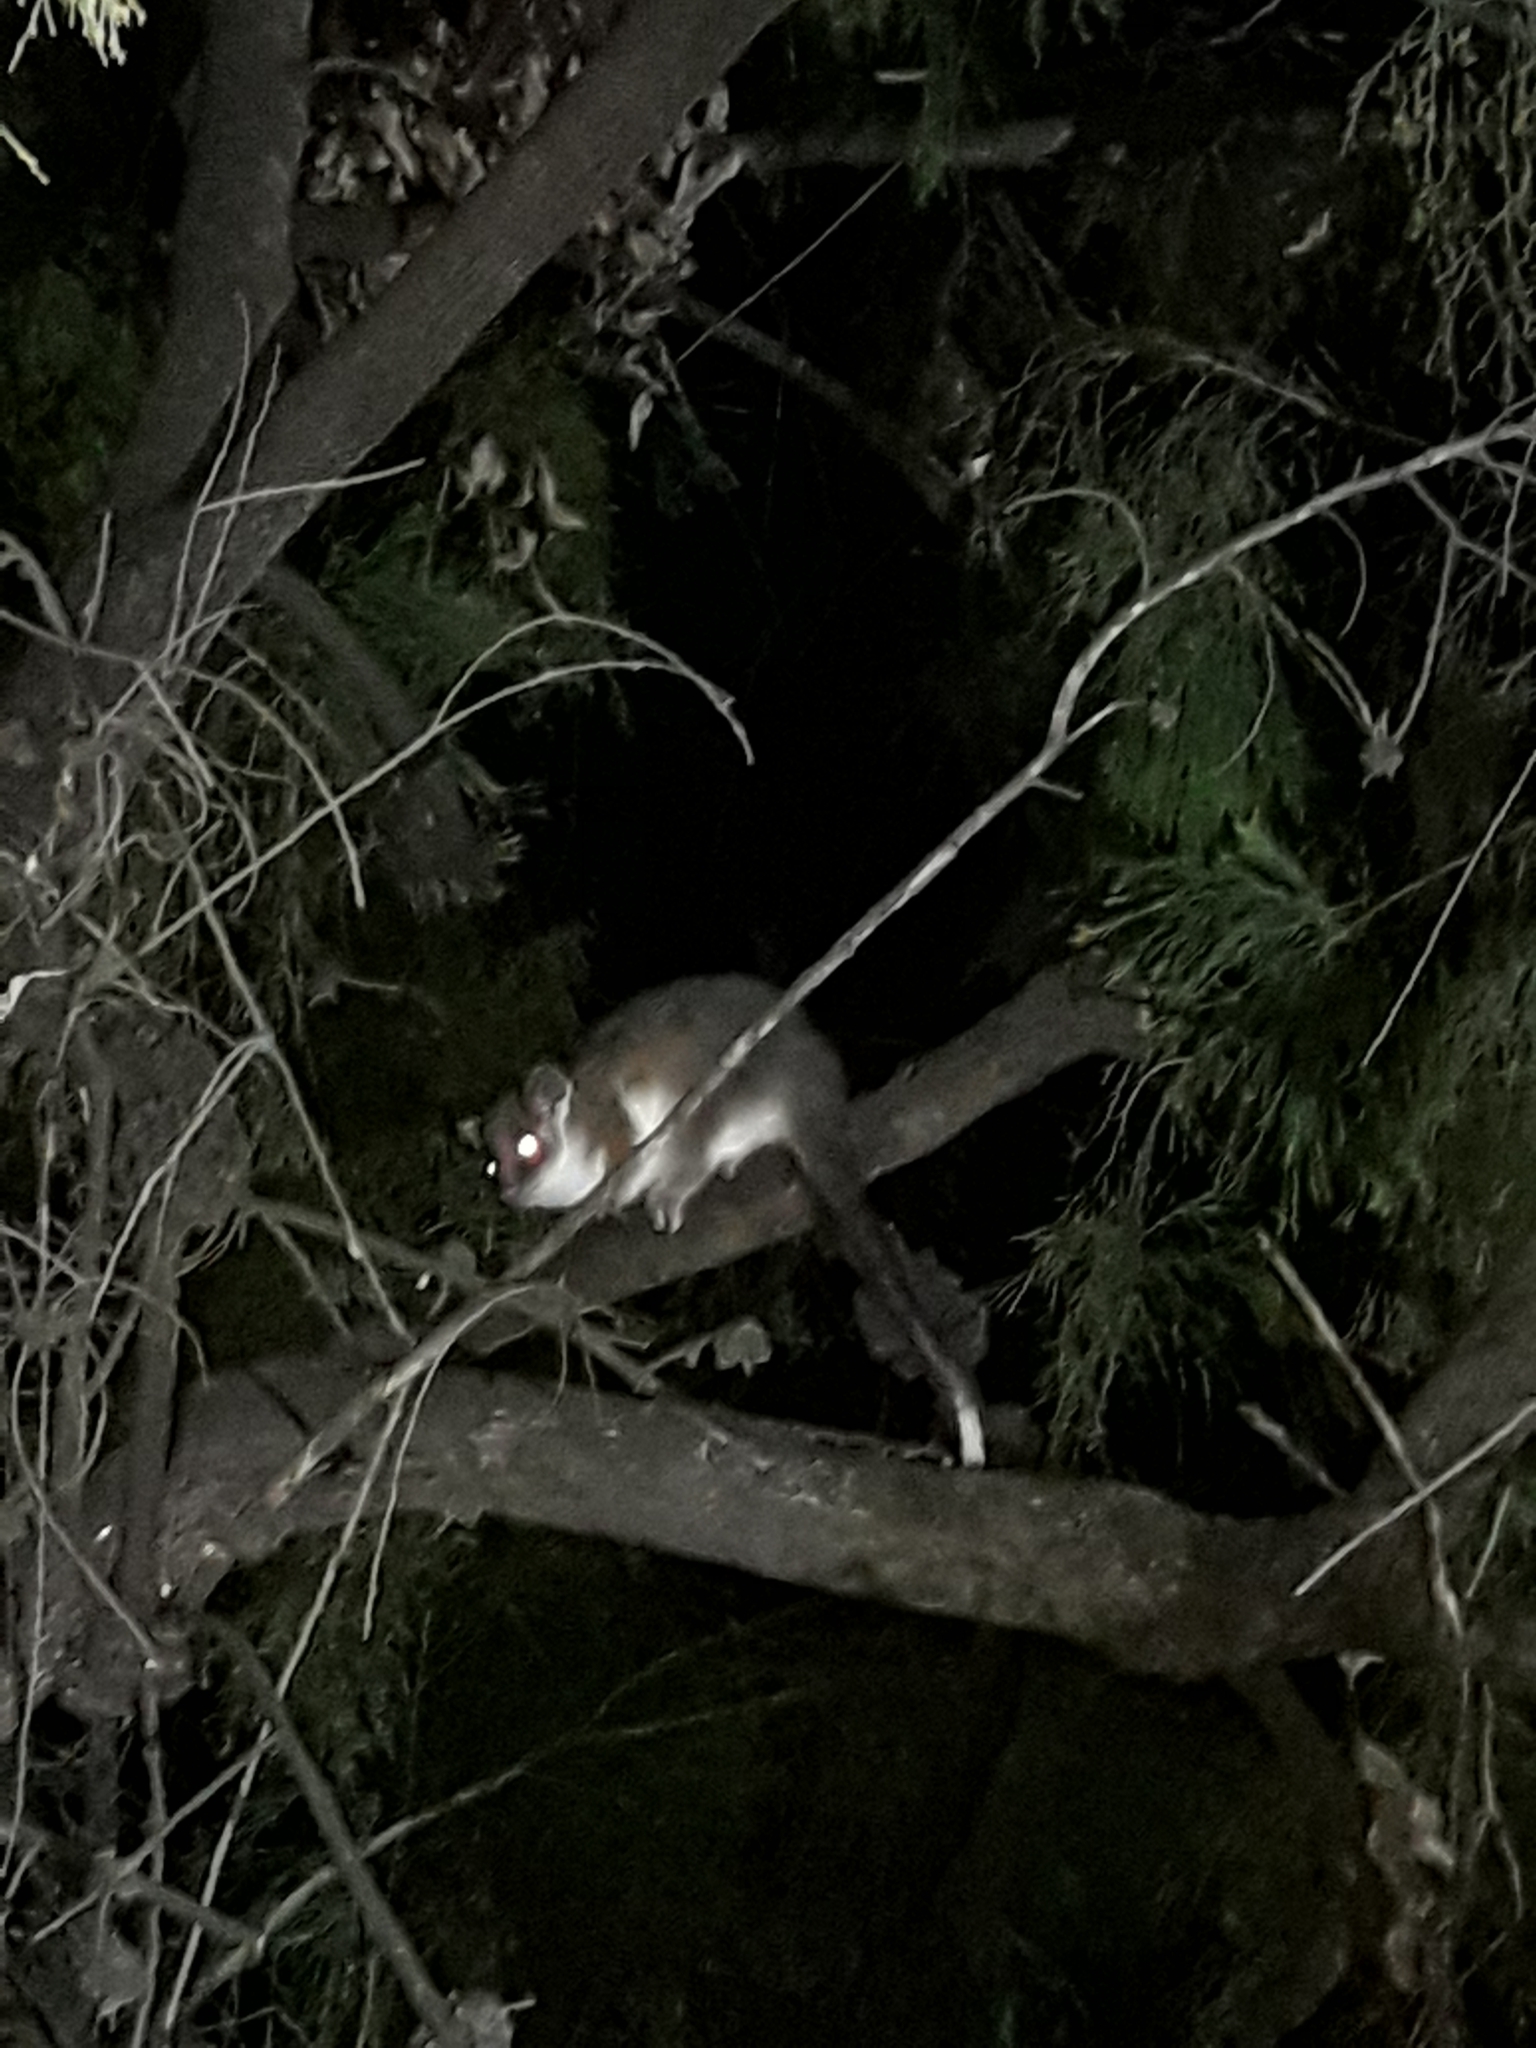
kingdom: Animalia
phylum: Chordata
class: Mammalia
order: Diprotodontia
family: Pseudocheiridae
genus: Pseudocheirus
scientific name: Pseudocheirus peregrinus
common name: Common ringtail possum
